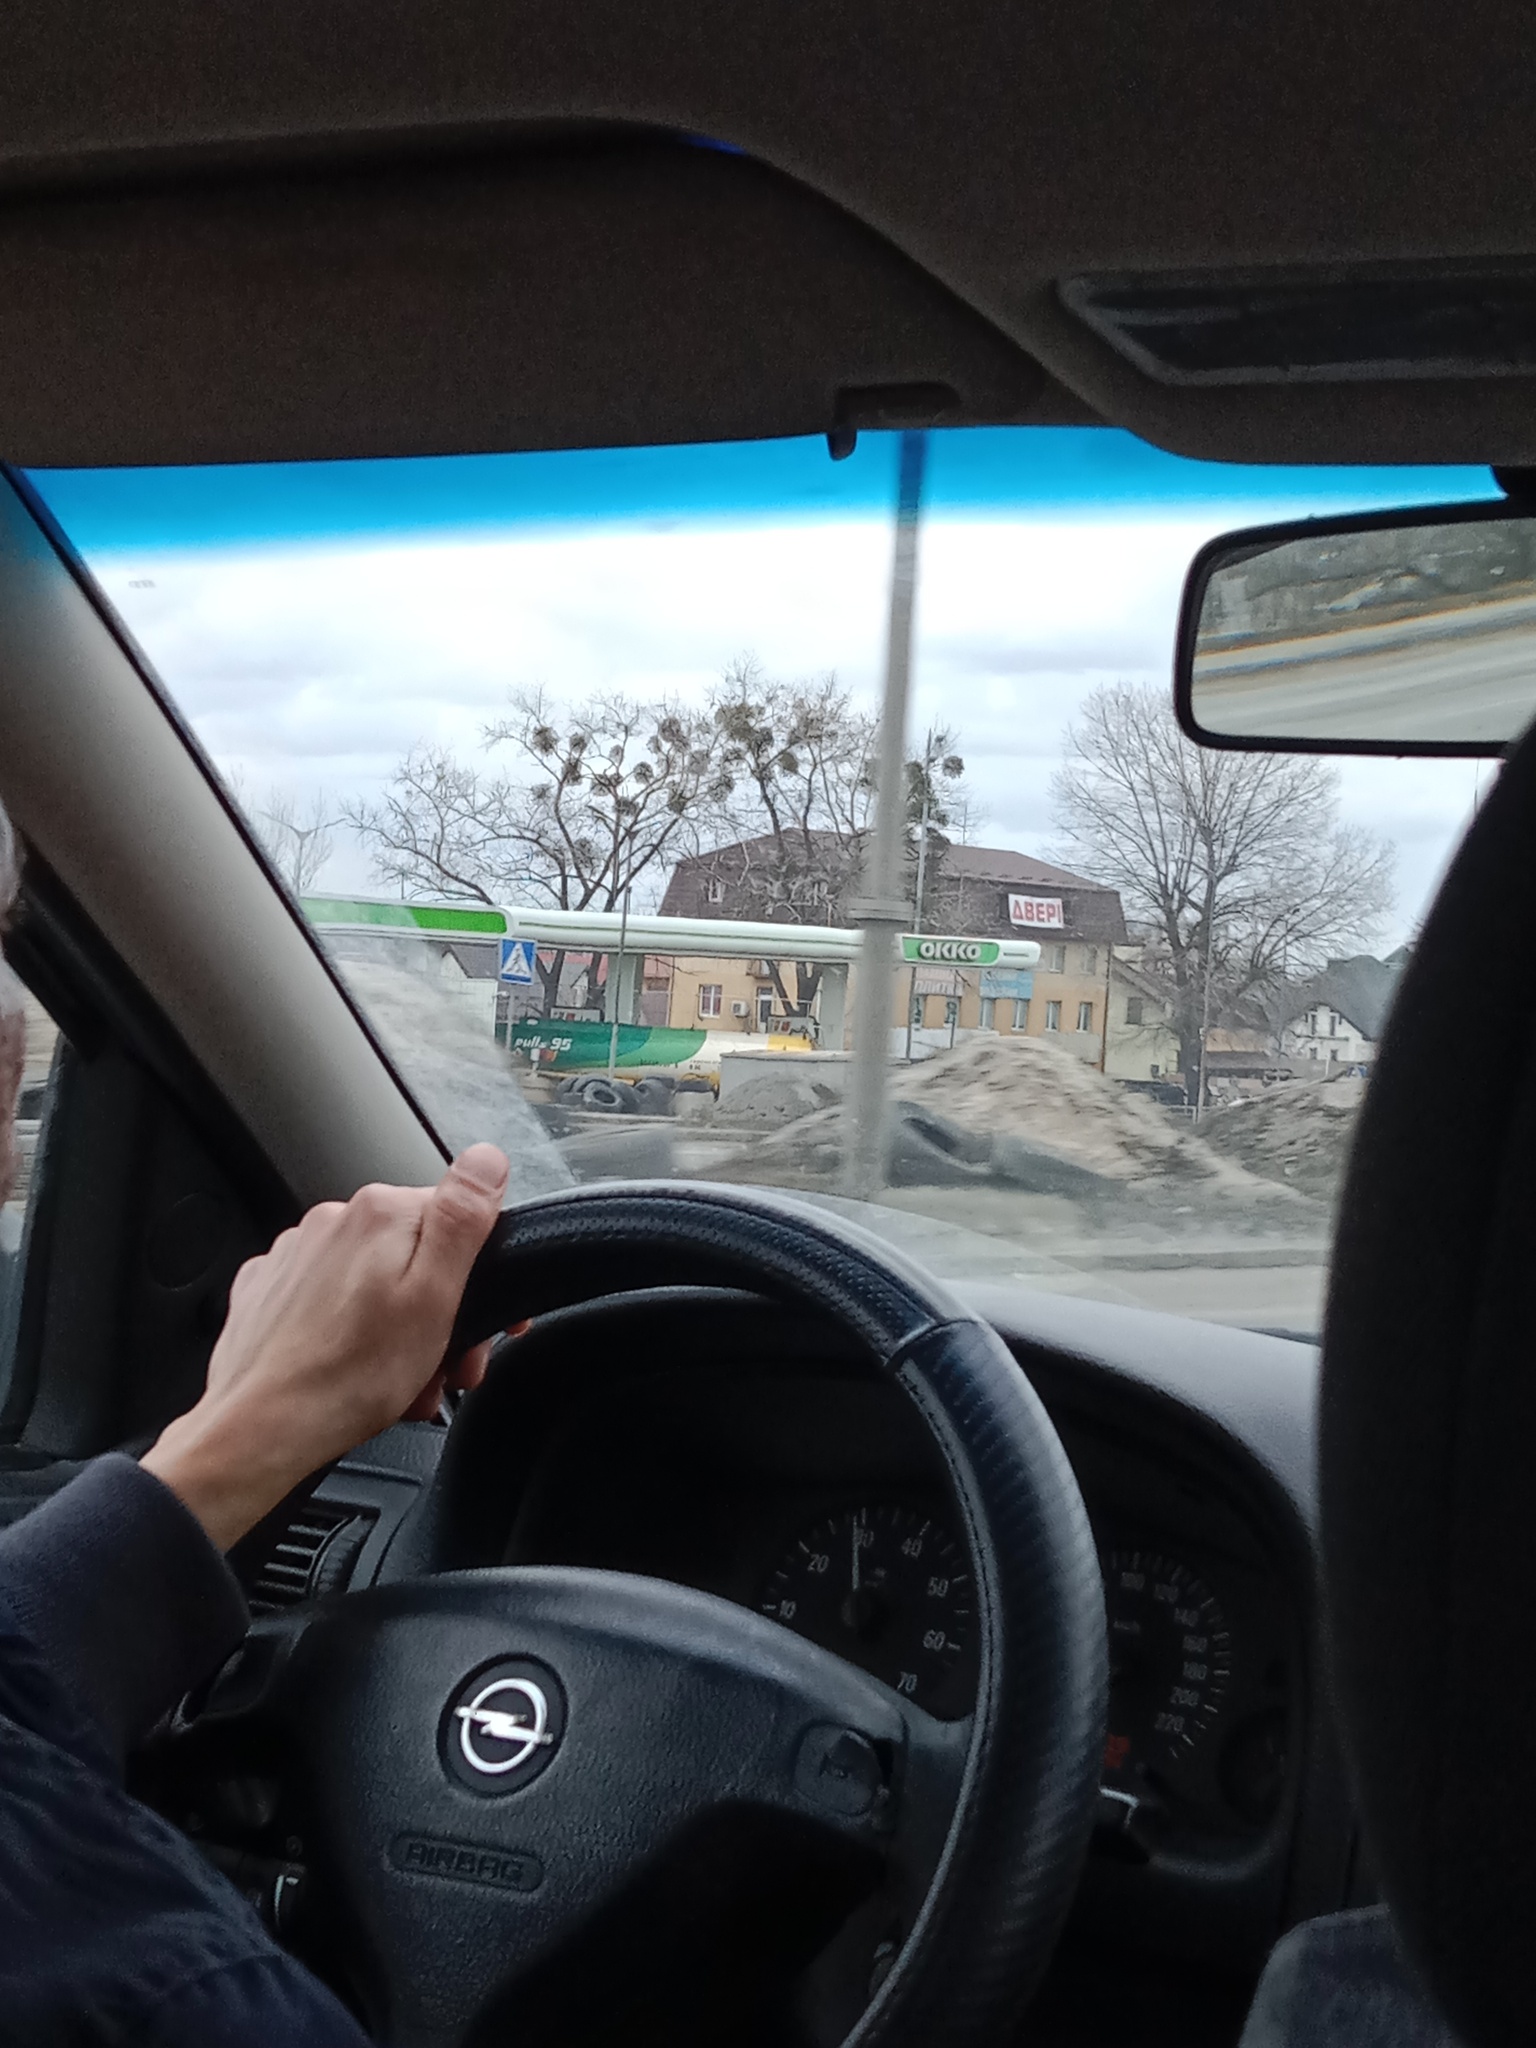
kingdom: Plantae
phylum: Tracheophyta
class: Magnoliopsida
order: Santalales
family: Viscaceae
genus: Viscum
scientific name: Viscum album
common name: Mistletoe
